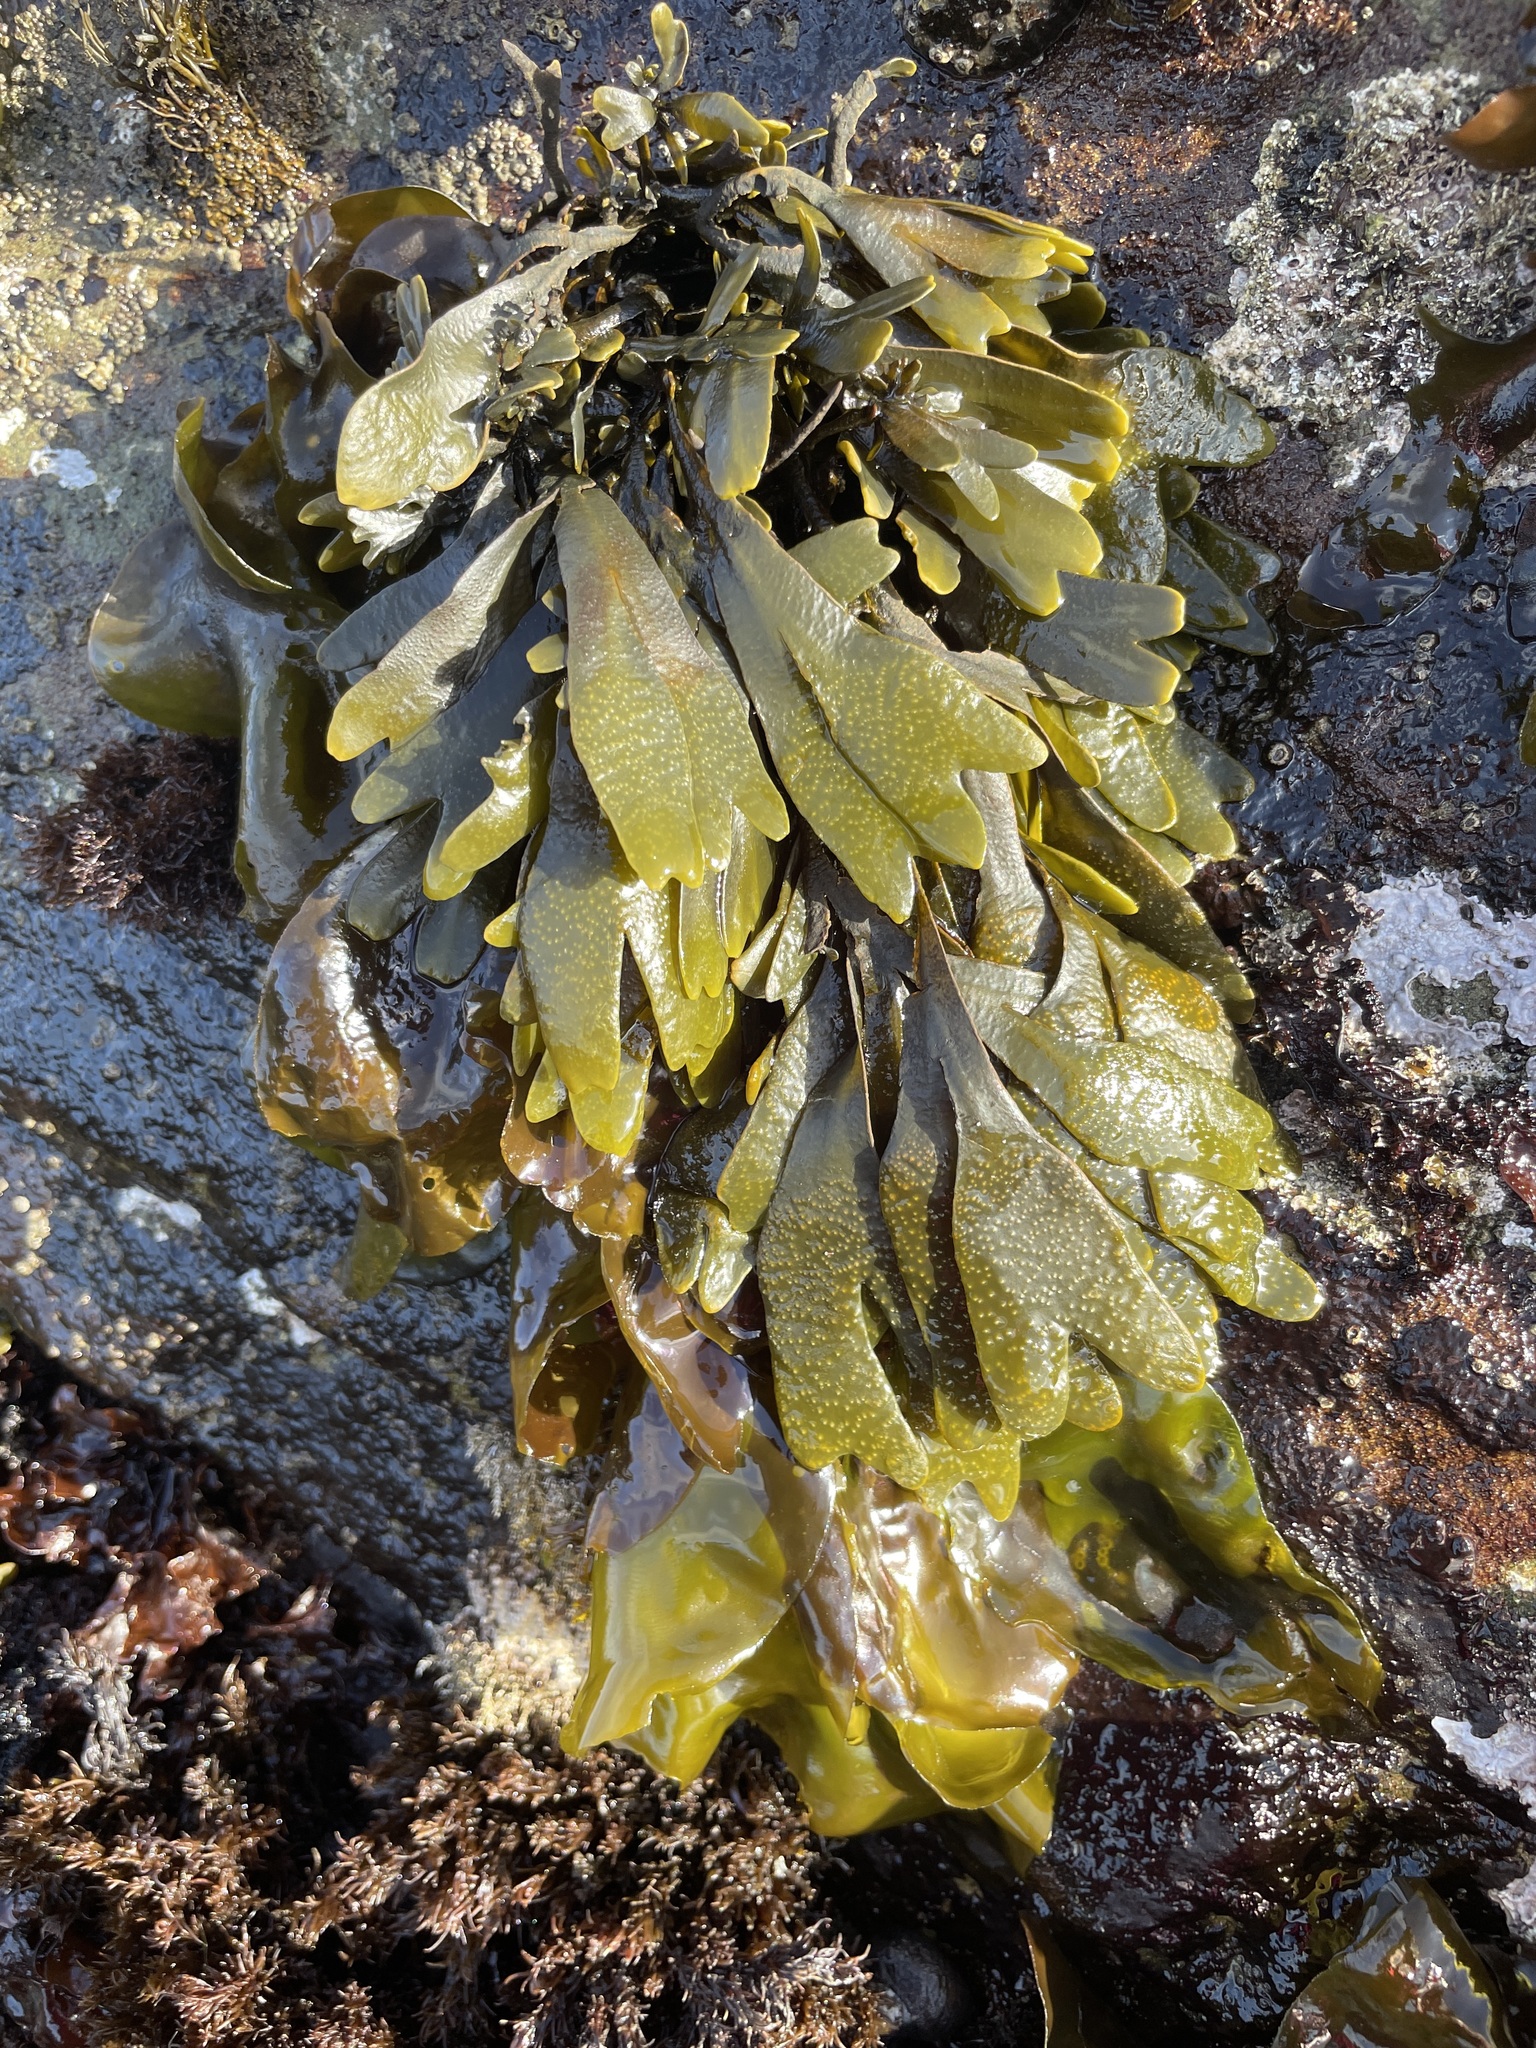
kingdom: Chromista
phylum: Ochrophyta
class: Phaeophyceae
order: Fucales
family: Fucaceae
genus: Fucus
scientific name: Fucus distichus
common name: Rockweed
